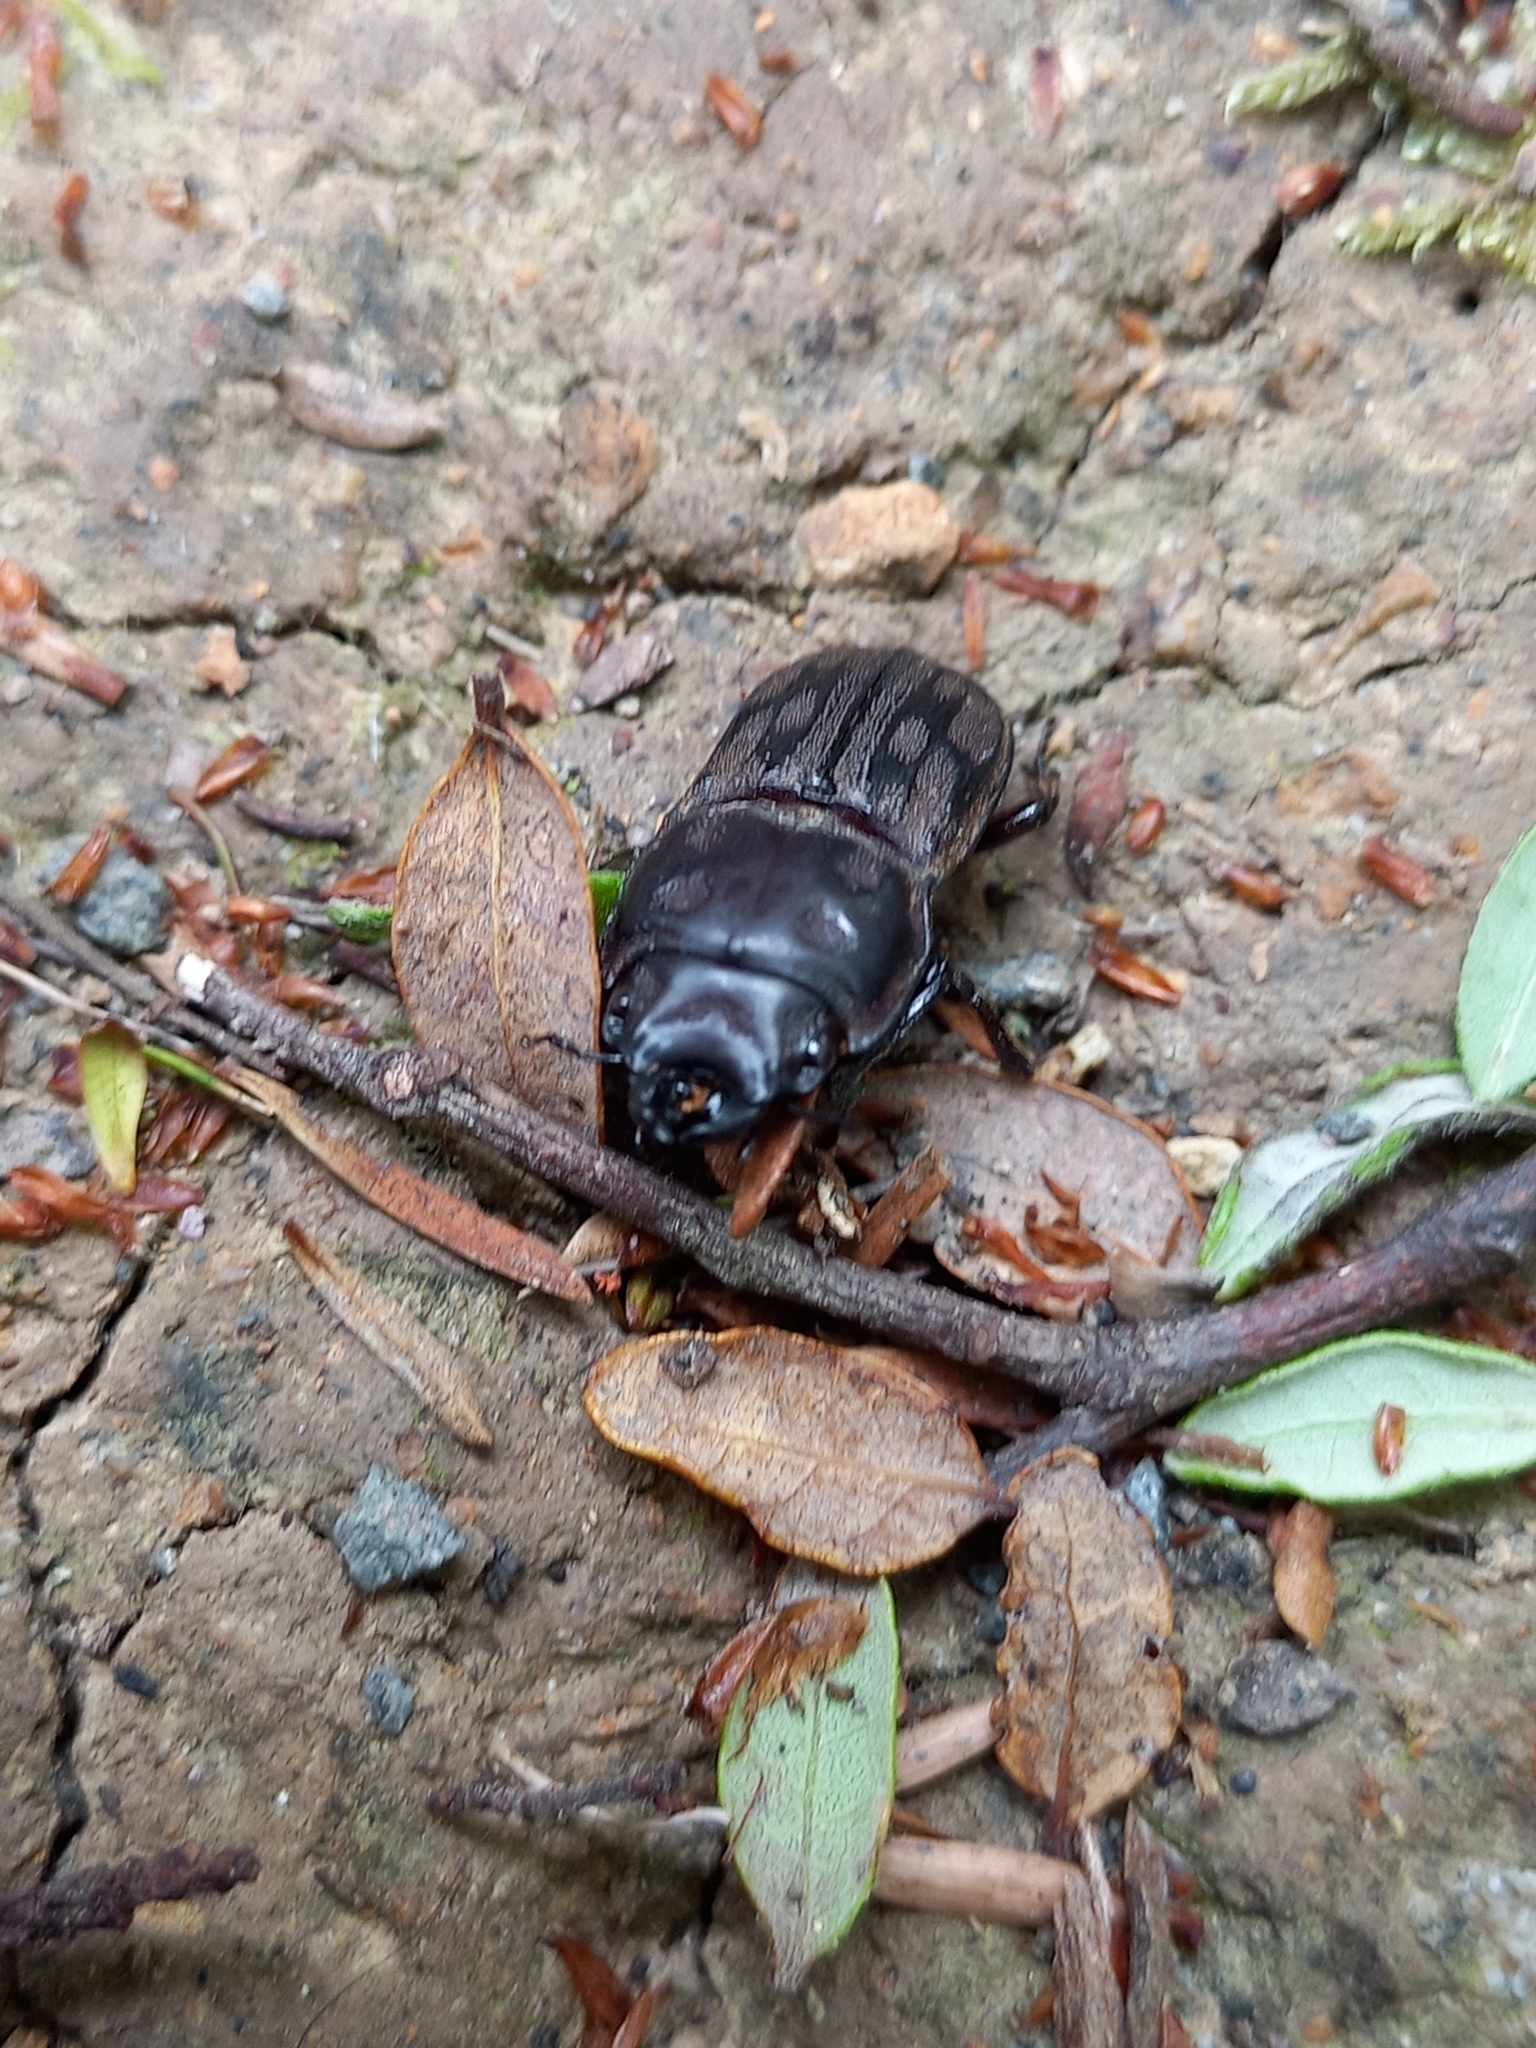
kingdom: Animalia
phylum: Arthropoda
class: Insecta
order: Coleoptera
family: Lucanidae
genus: Paralissotes
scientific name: Paralissotes reticulatus
